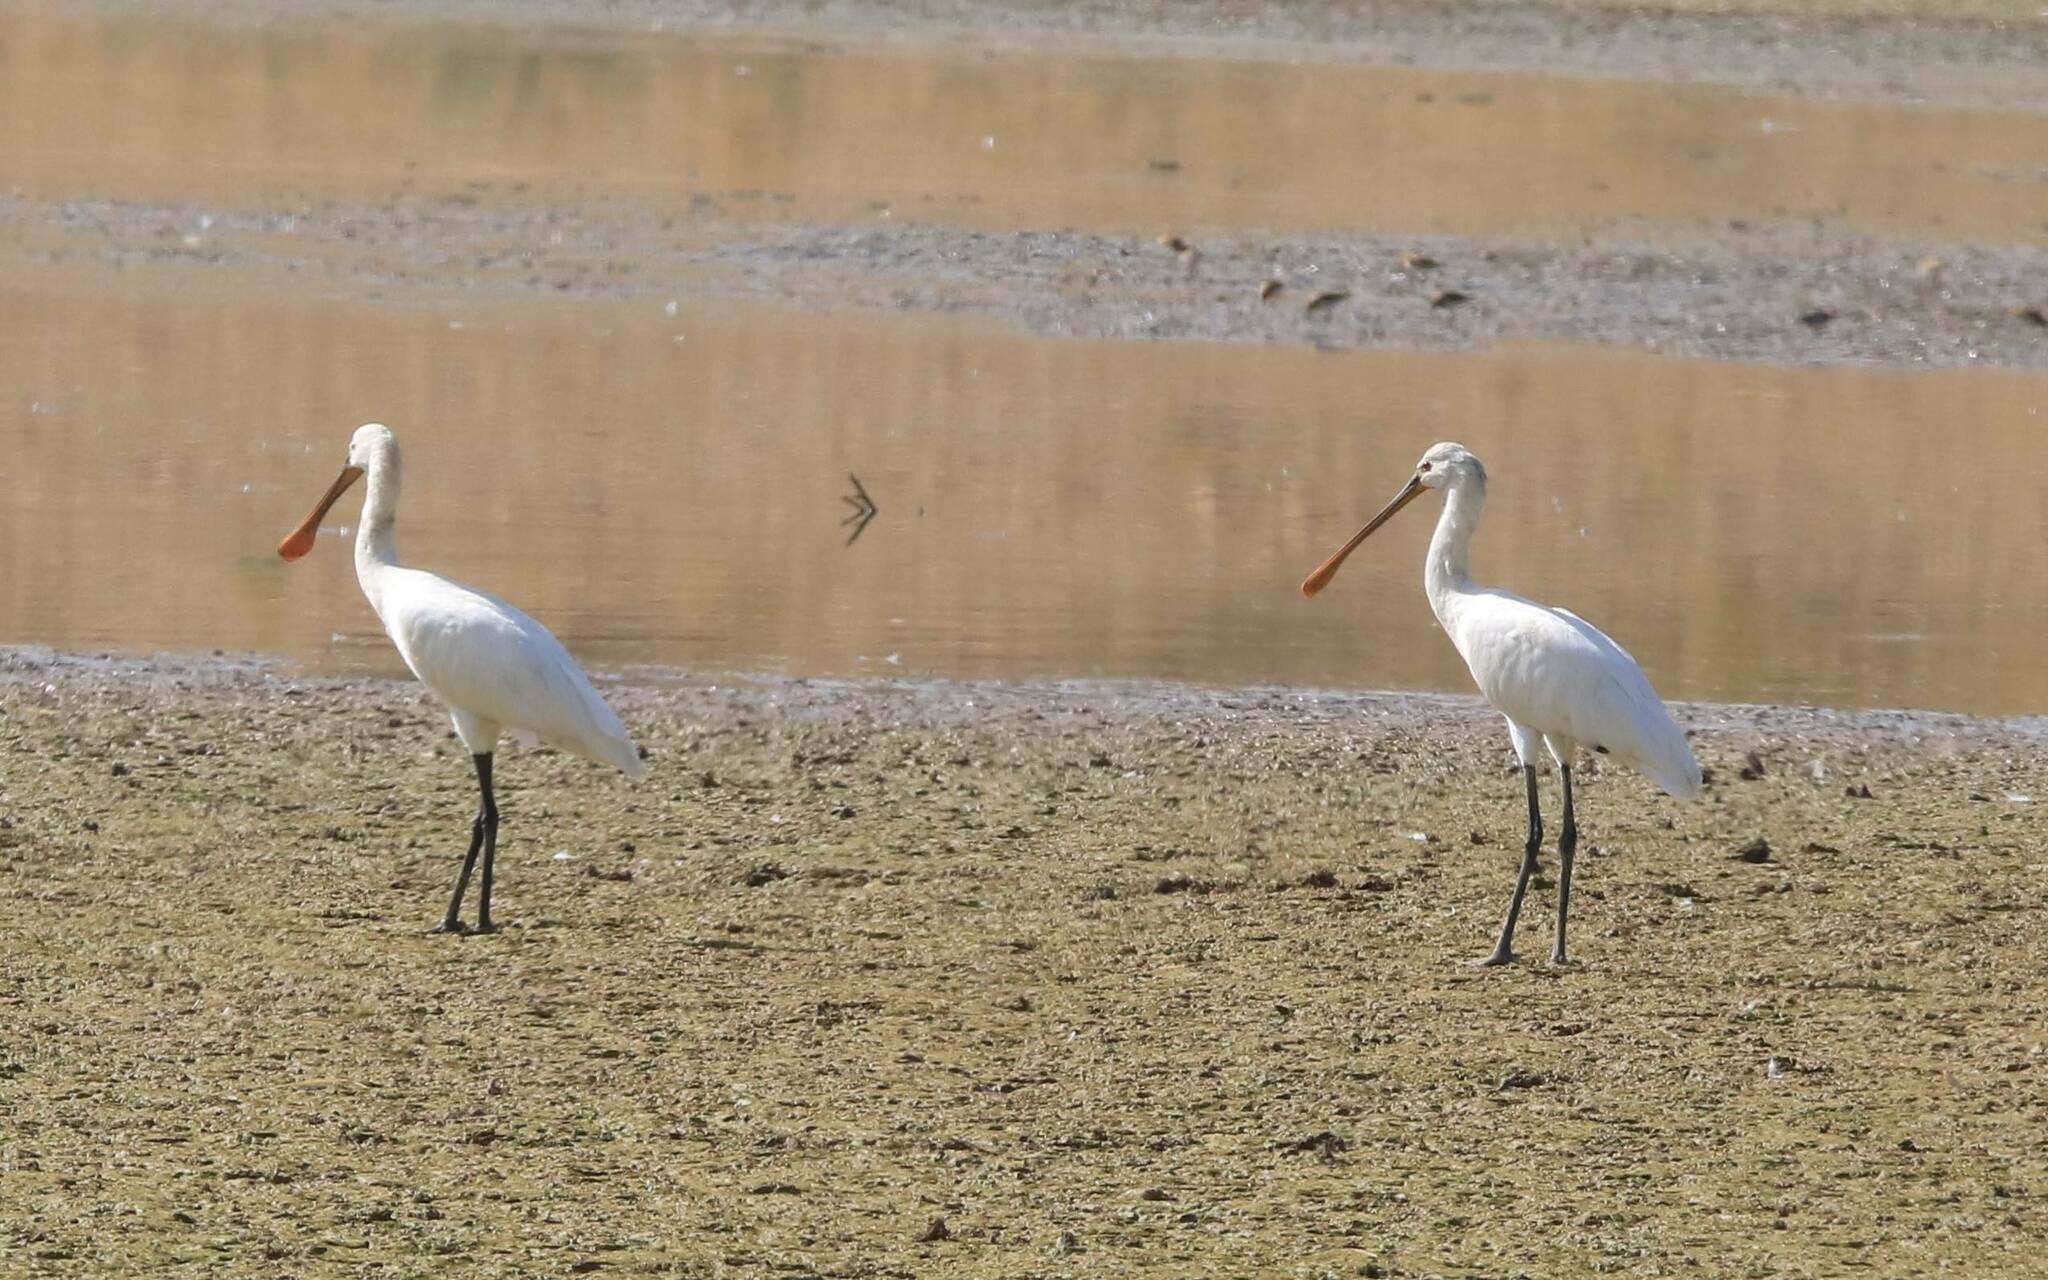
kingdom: Animalia
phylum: Chordata
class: Aves
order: Pelecaniformes
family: Threskiornithidae
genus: Platalea
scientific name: Platalea leucorodia
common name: Eurasian spoonbill
